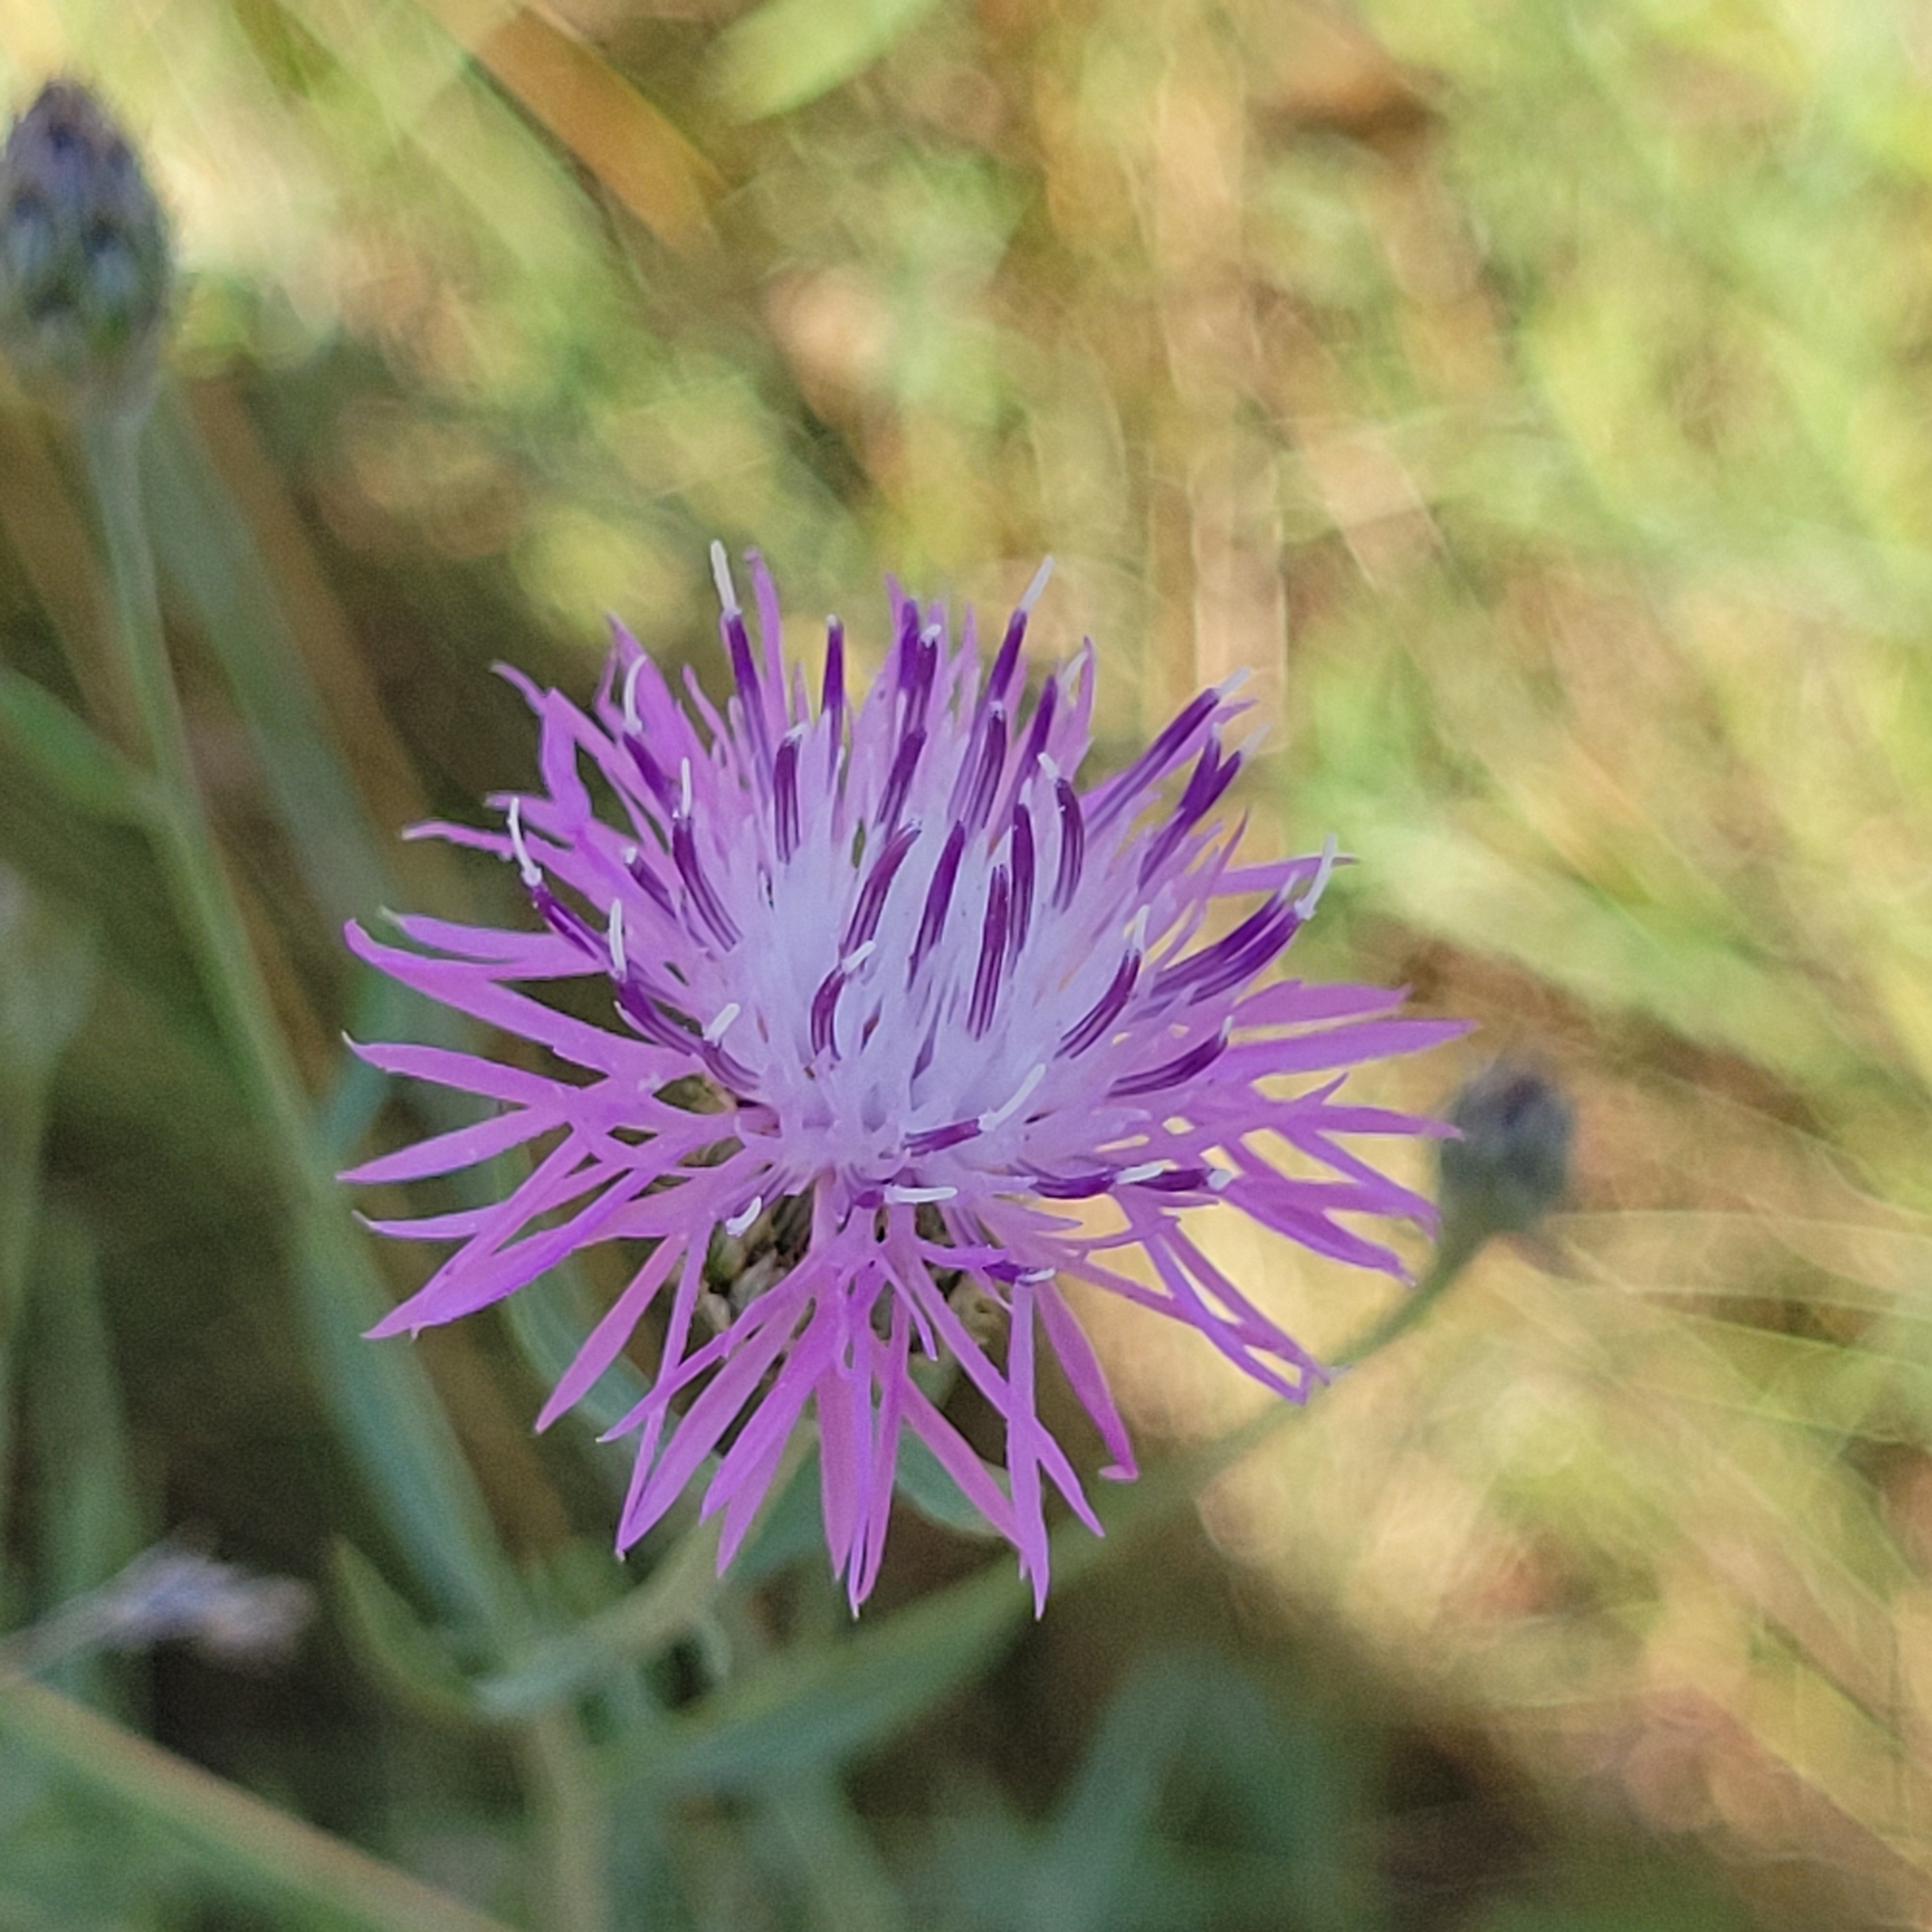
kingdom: Plantae
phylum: Tracheophyta
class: Magnoliopsida
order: Asterales
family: Asteraceae
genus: Centaurea
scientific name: Centaurea stoebe
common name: Spotted knapweed
